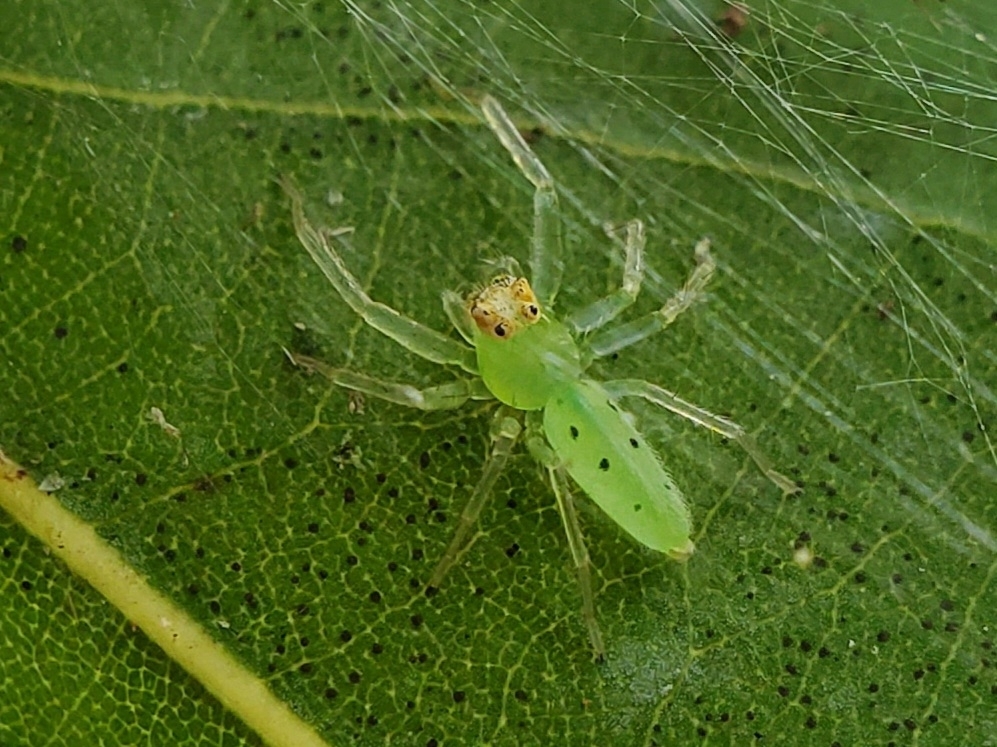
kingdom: Animalia
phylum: Arthropoda
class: Arachnida
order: Araneae
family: Salticidae
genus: Lyssomanes
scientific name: Lyssomanes viridis
